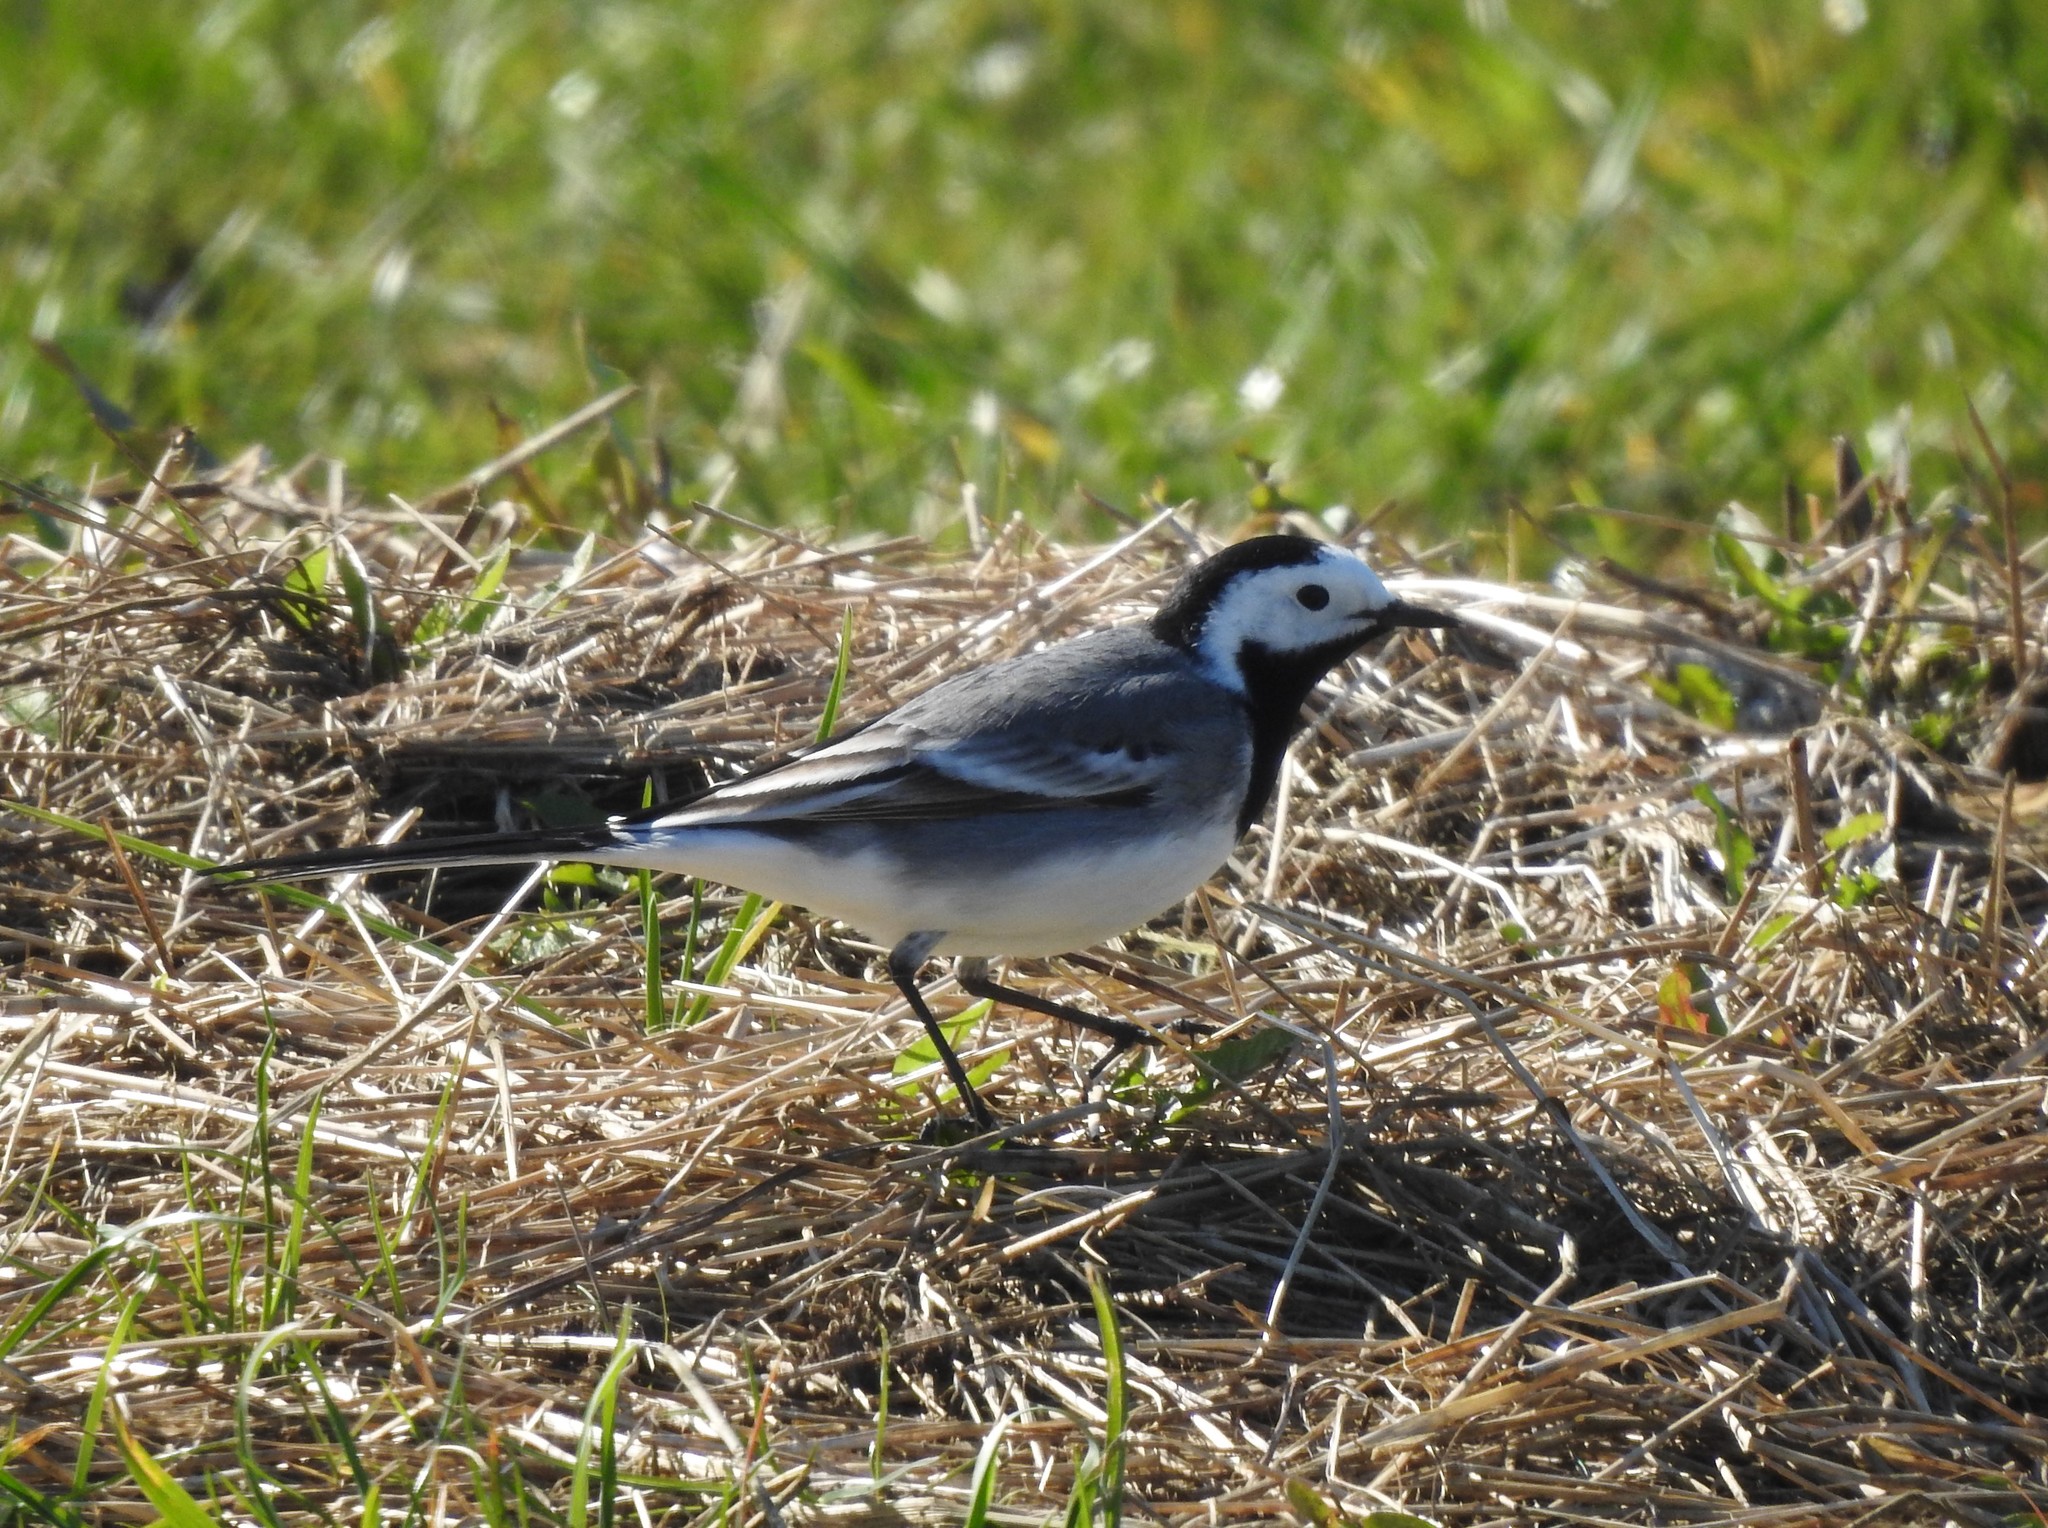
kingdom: Animalia
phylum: Chordata
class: Aves
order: Passeriformes
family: Motacillidae
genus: Motacilla
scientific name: Motacilla alba
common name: White wagtail
